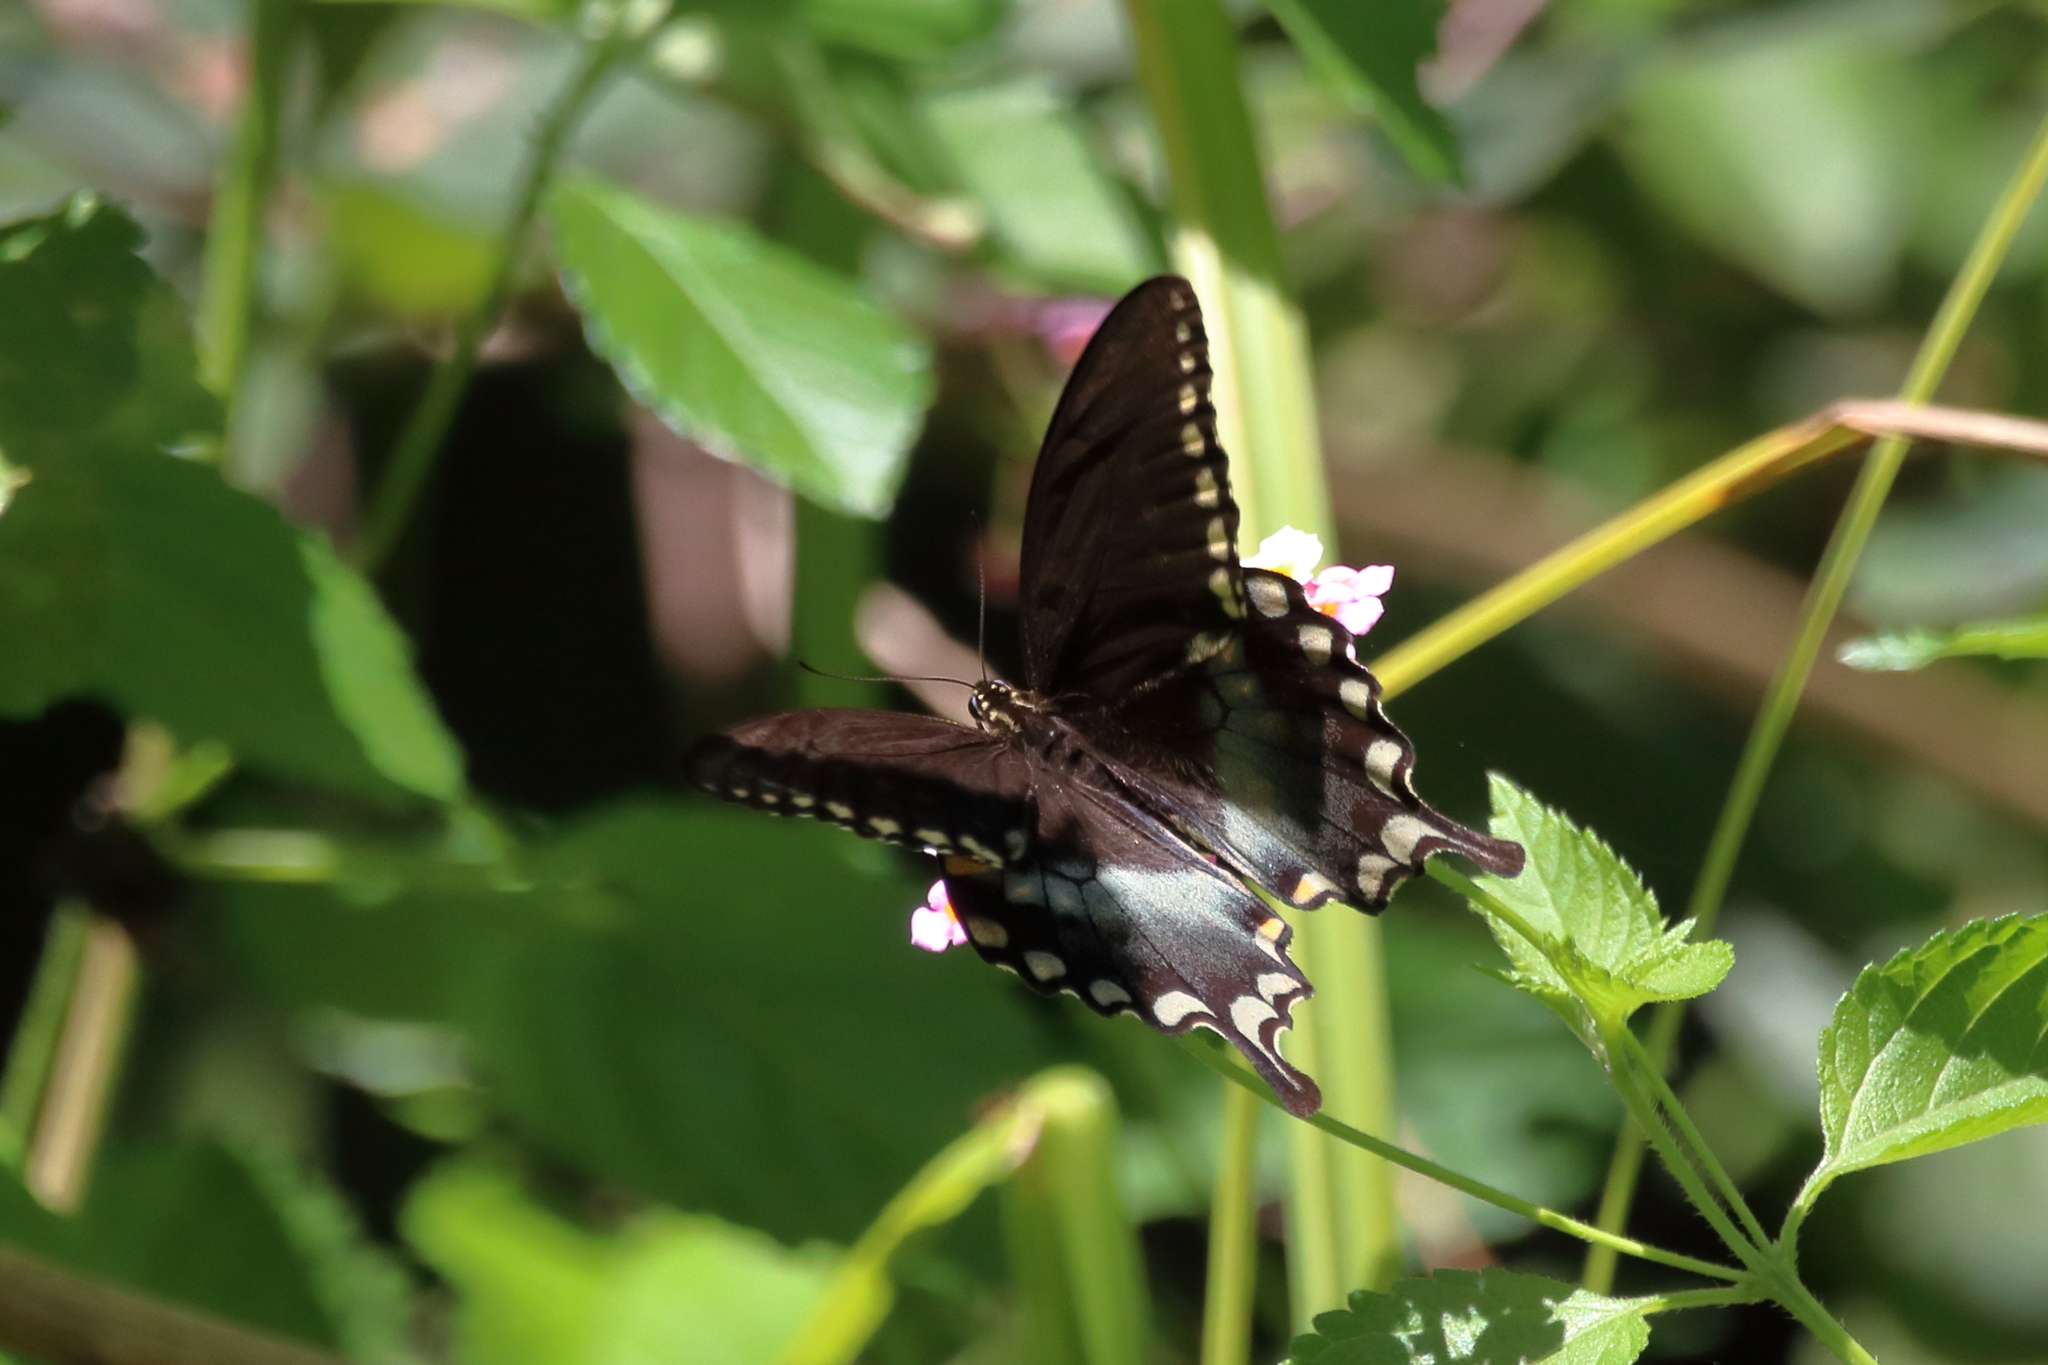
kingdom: Animalia
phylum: Arthropoda
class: Insecta
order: Lepidoptera
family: Papilionidae
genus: Papilio
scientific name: Papilio troilus
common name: Spicebush swallowtail
